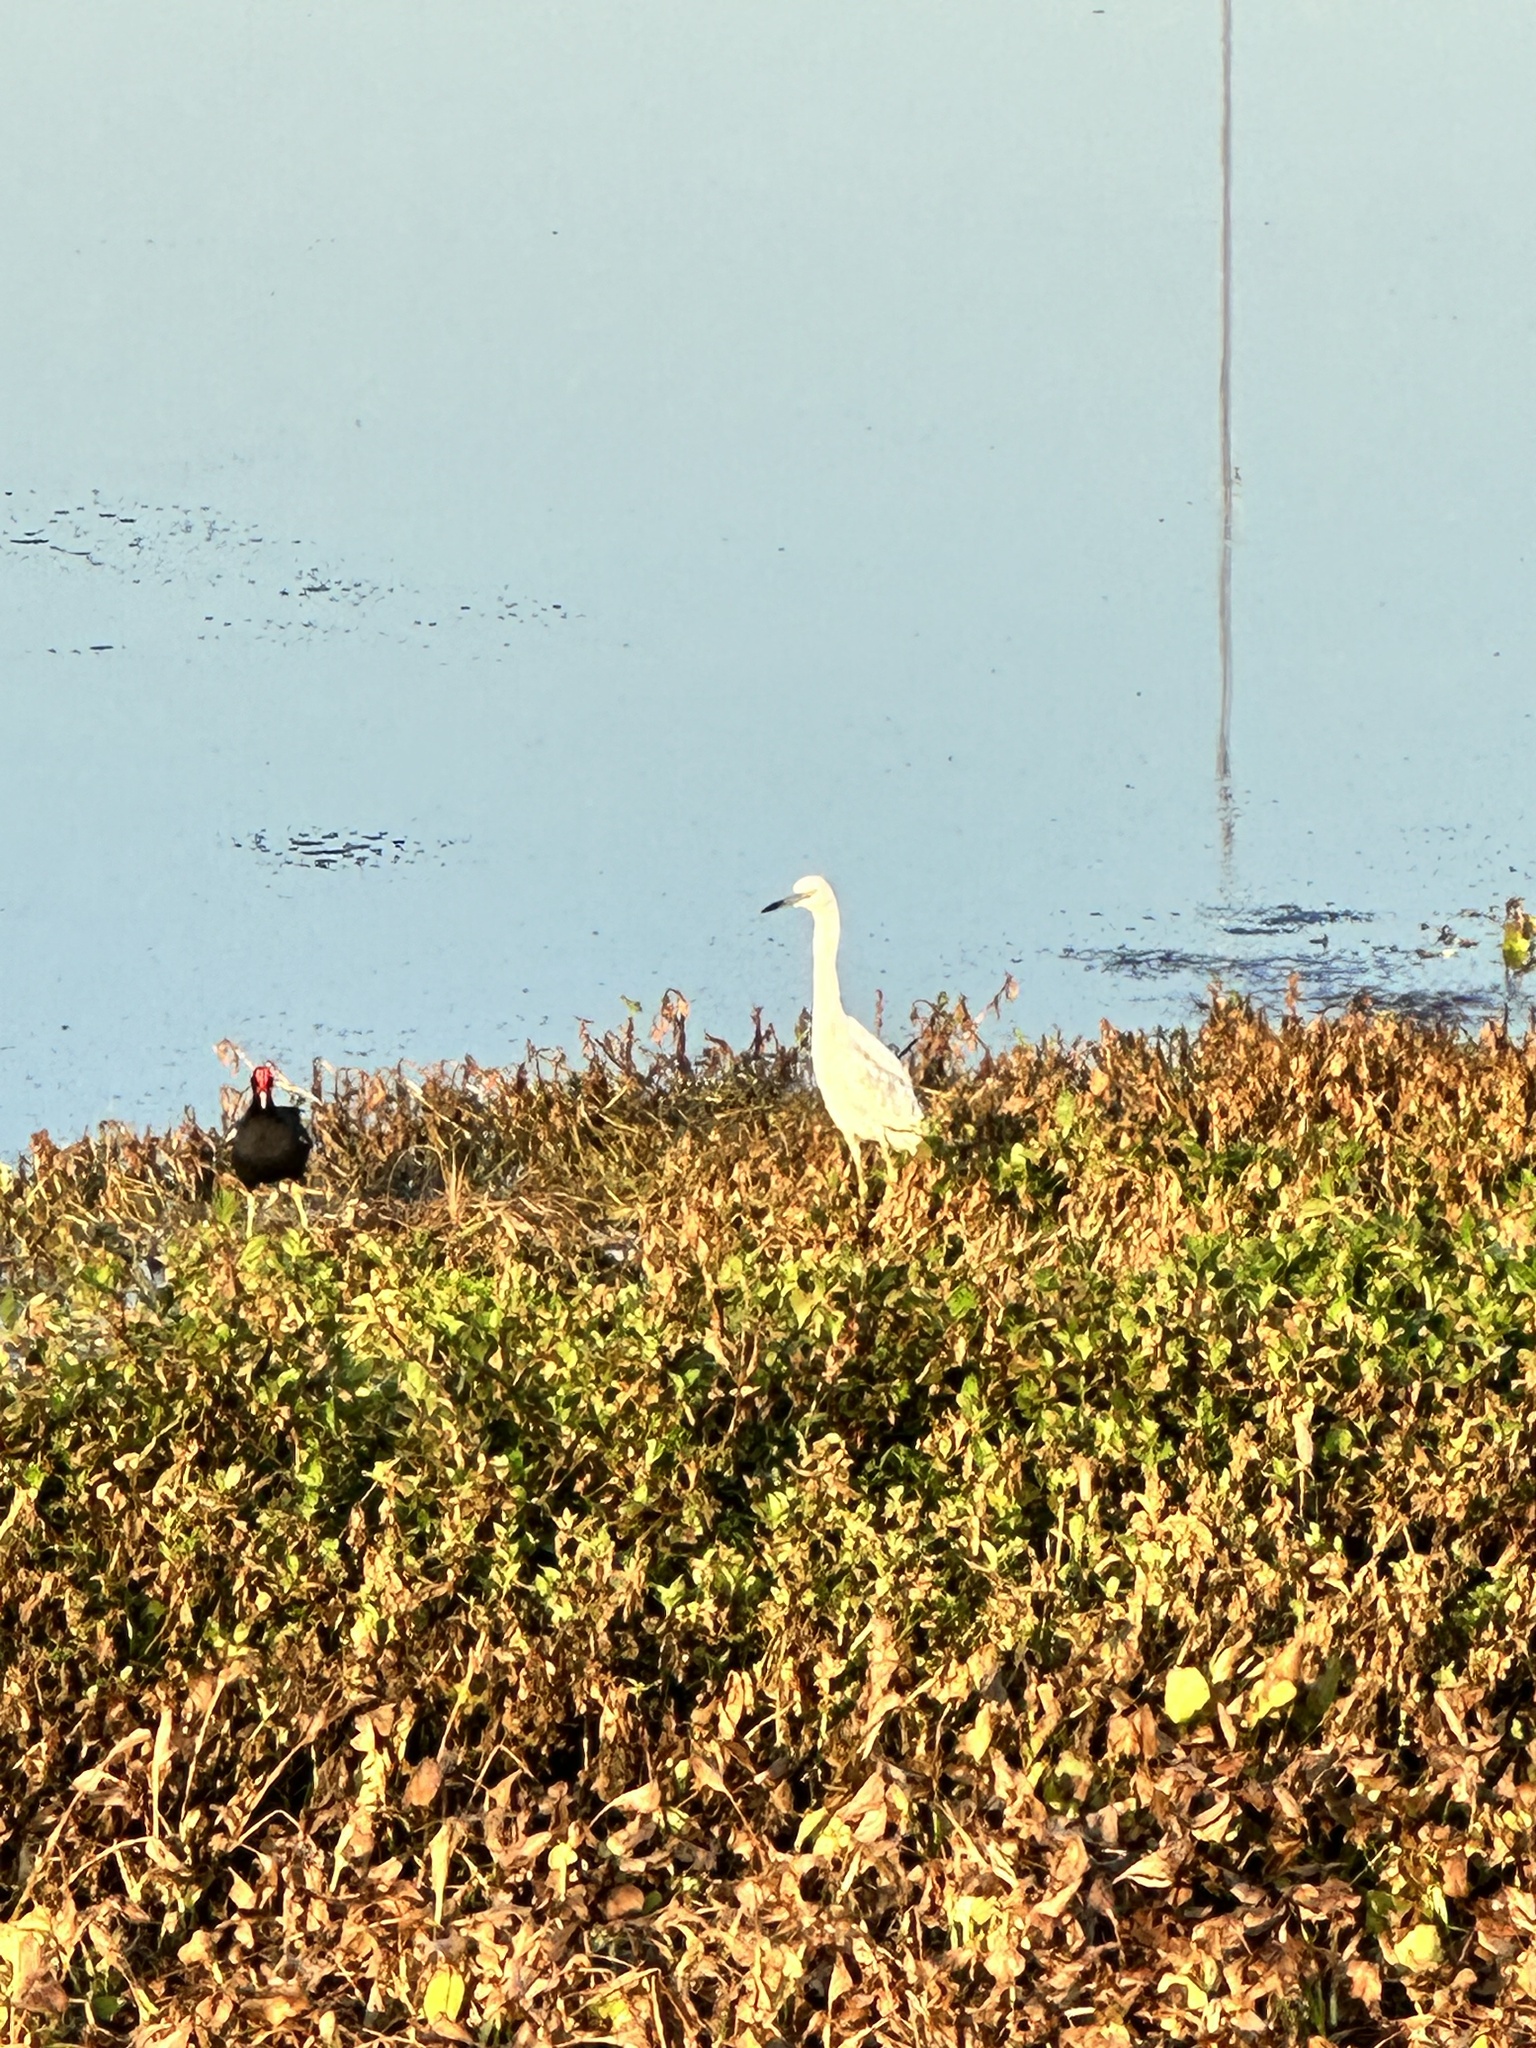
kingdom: Animalia
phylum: Chordata
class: Aves
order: Pelecaniformes
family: Ardeidae
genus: Egretta
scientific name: Egretta caerulea
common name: Little blue heron
